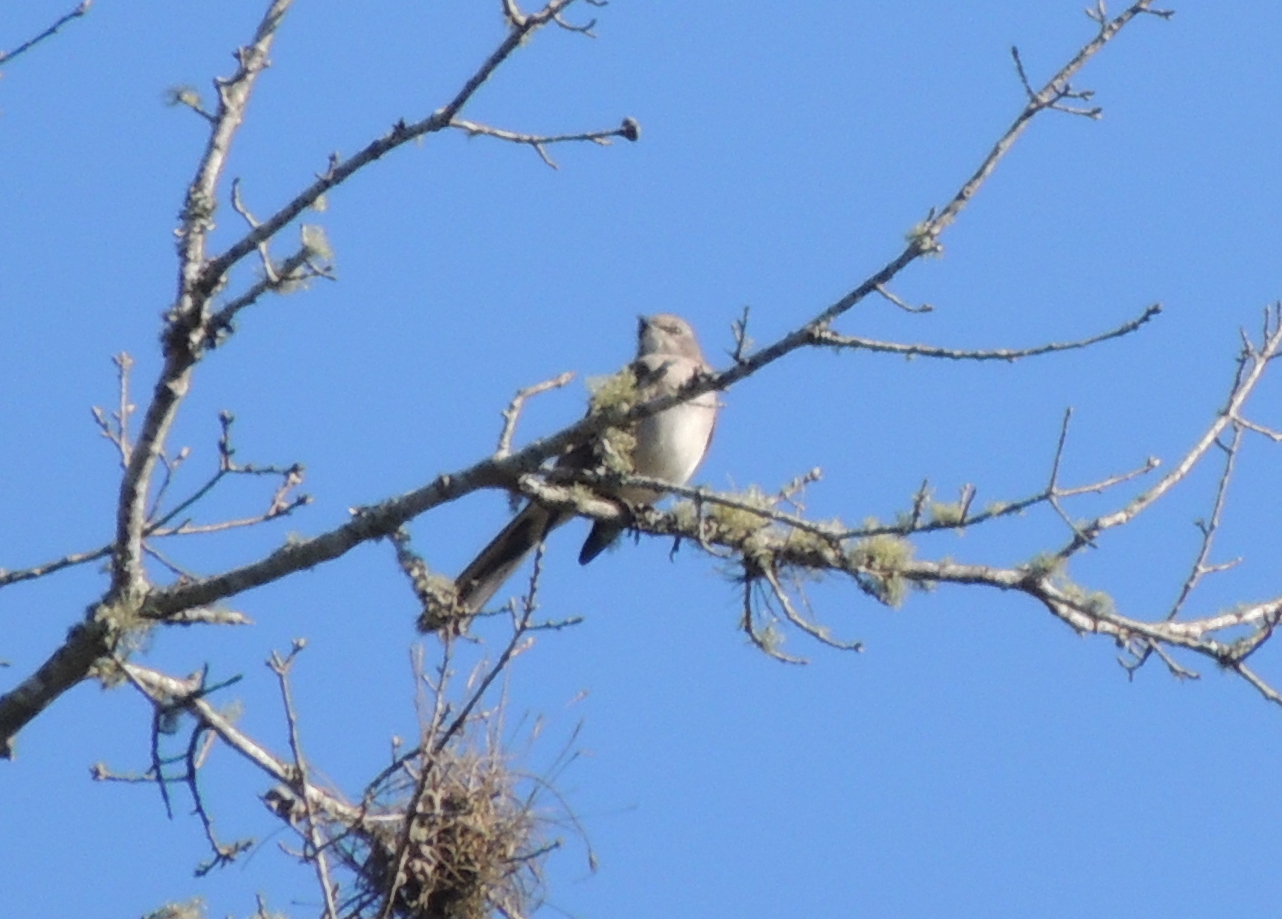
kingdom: Animalia
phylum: Chordata
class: Aves
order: Passeriformes
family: Mimidae
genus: Mimus
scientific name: Mimus polyglottos
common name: Northern mockingbird
